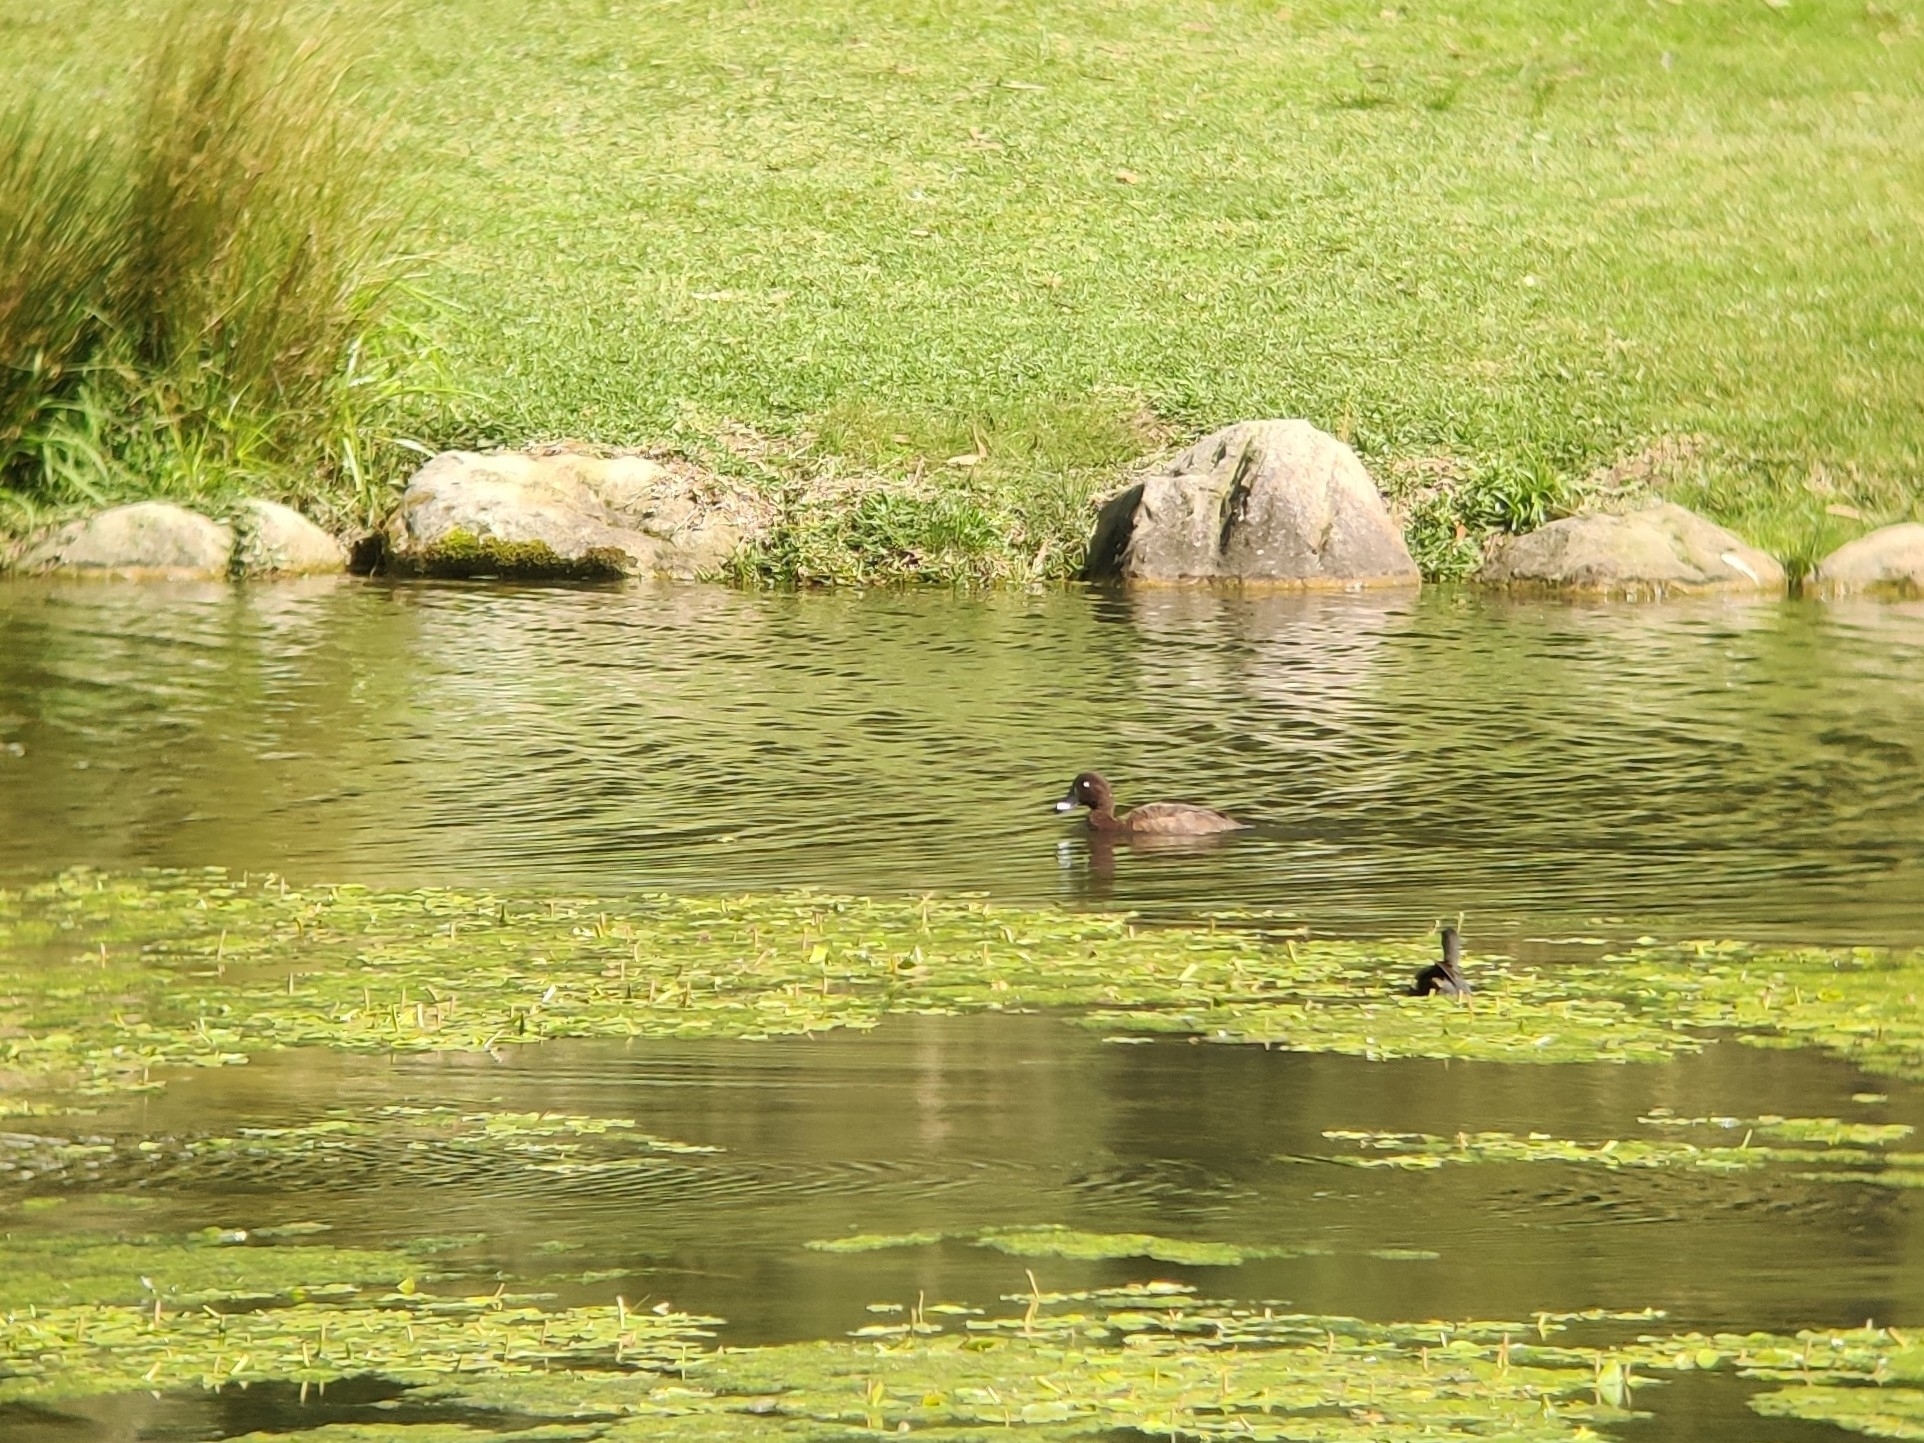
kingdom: Animalia
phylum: Chordata
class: Aves
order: Anseriformes
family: Anatidae
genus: Aythya
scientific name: Aythya australis
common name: Hardhead
